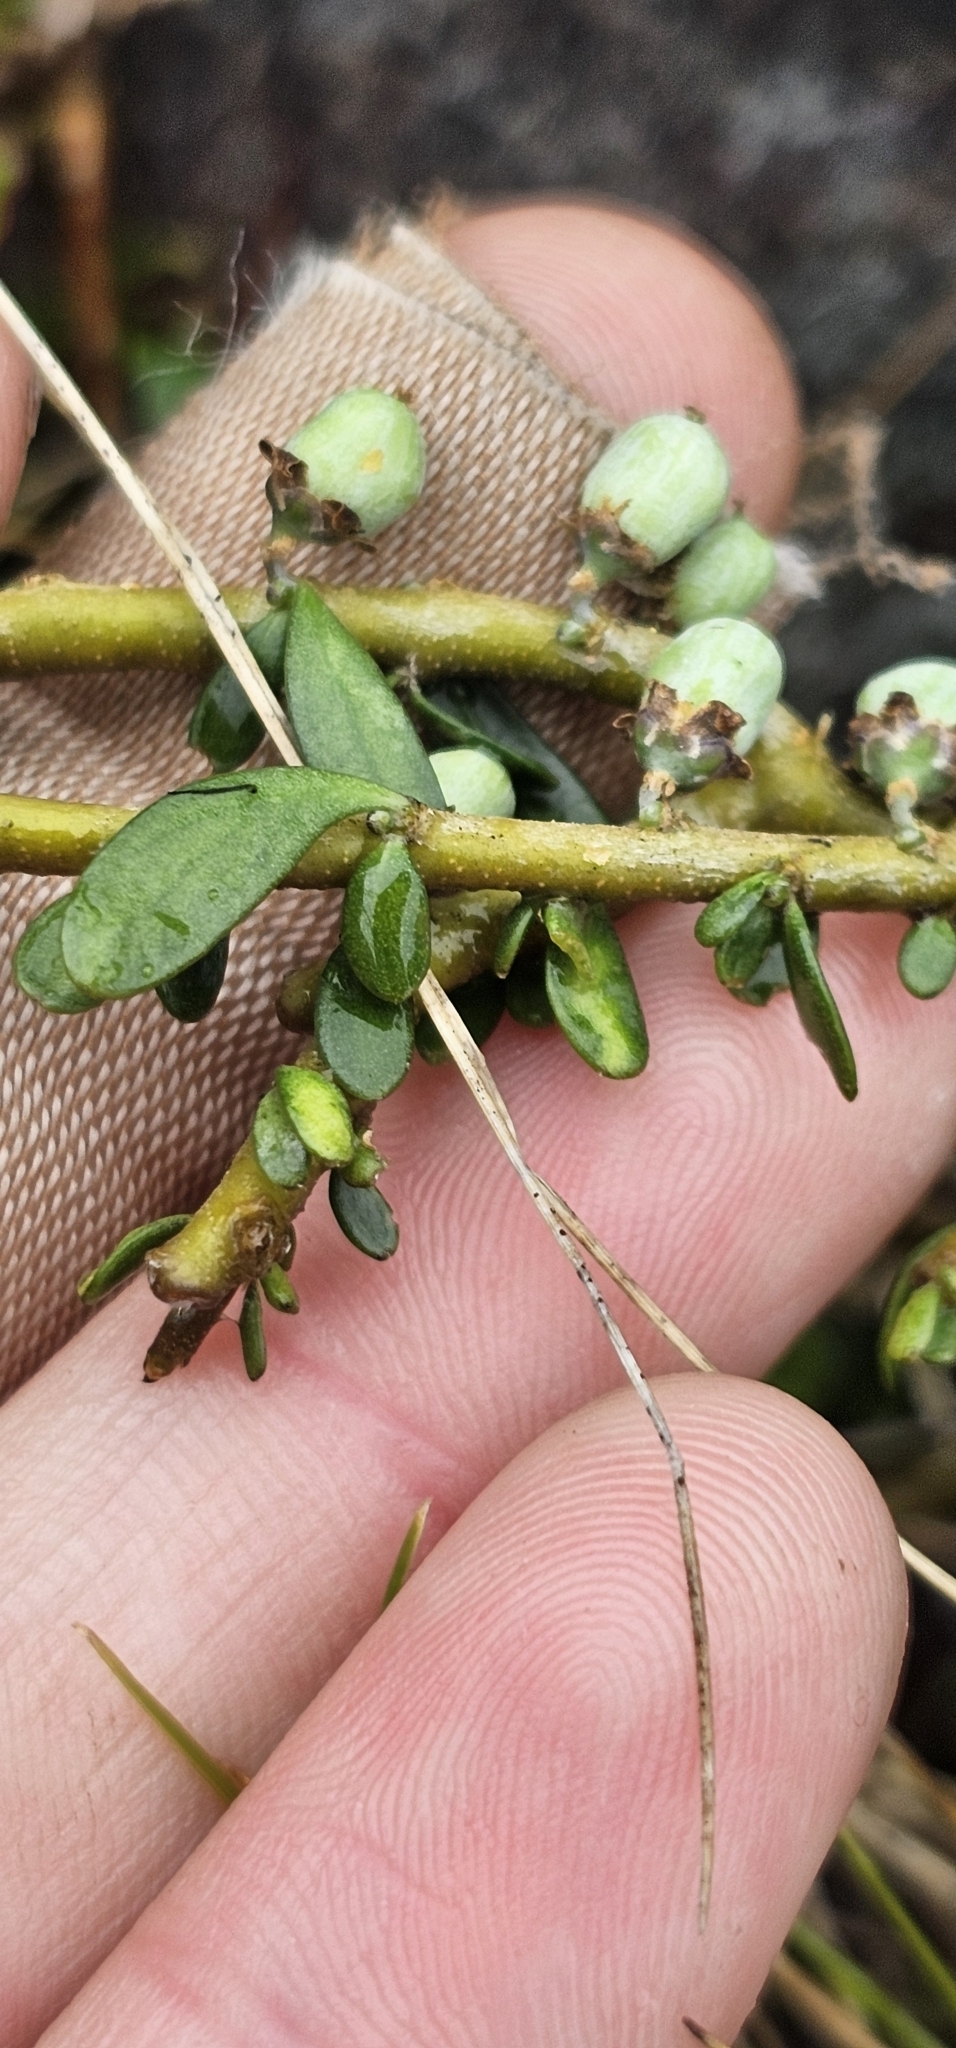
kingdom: Plantae
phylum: Tracheophyta
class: Magnoliopsida
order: Malpighiales
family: Violaceae
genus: Melicytus
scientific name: Melicytus alpinus
